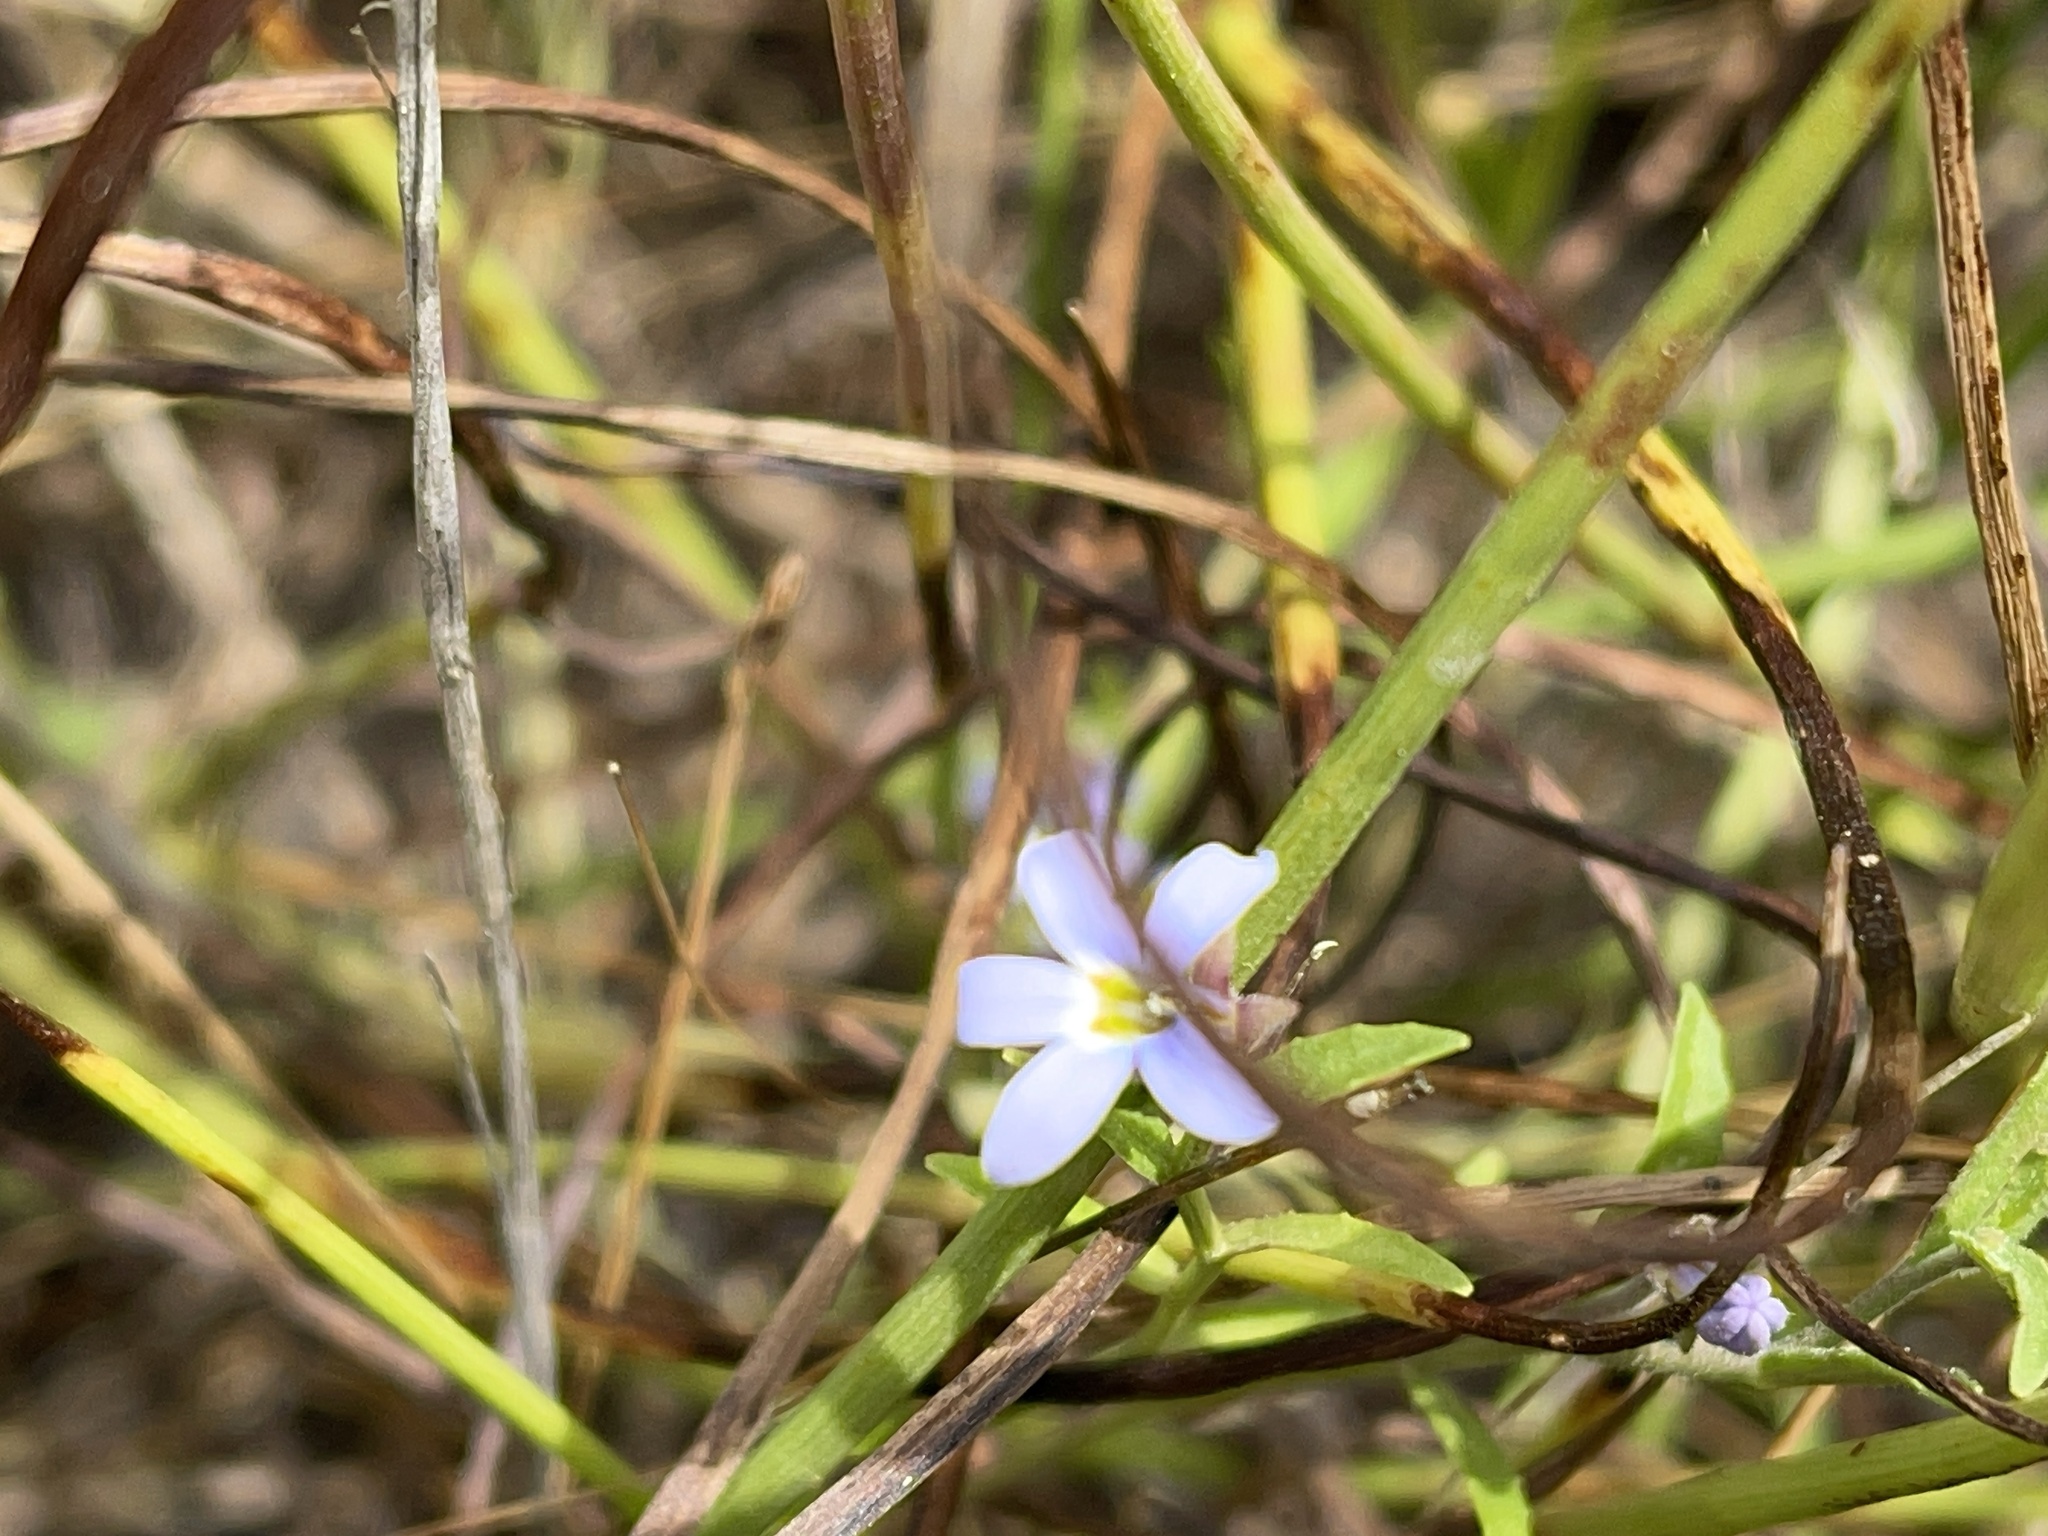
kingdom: Plantae
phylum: Tracheophyta
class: Magnoliopsida
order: Asterales
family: Campanulaceae
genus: Lobelia
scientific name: Lobelia pratioides
